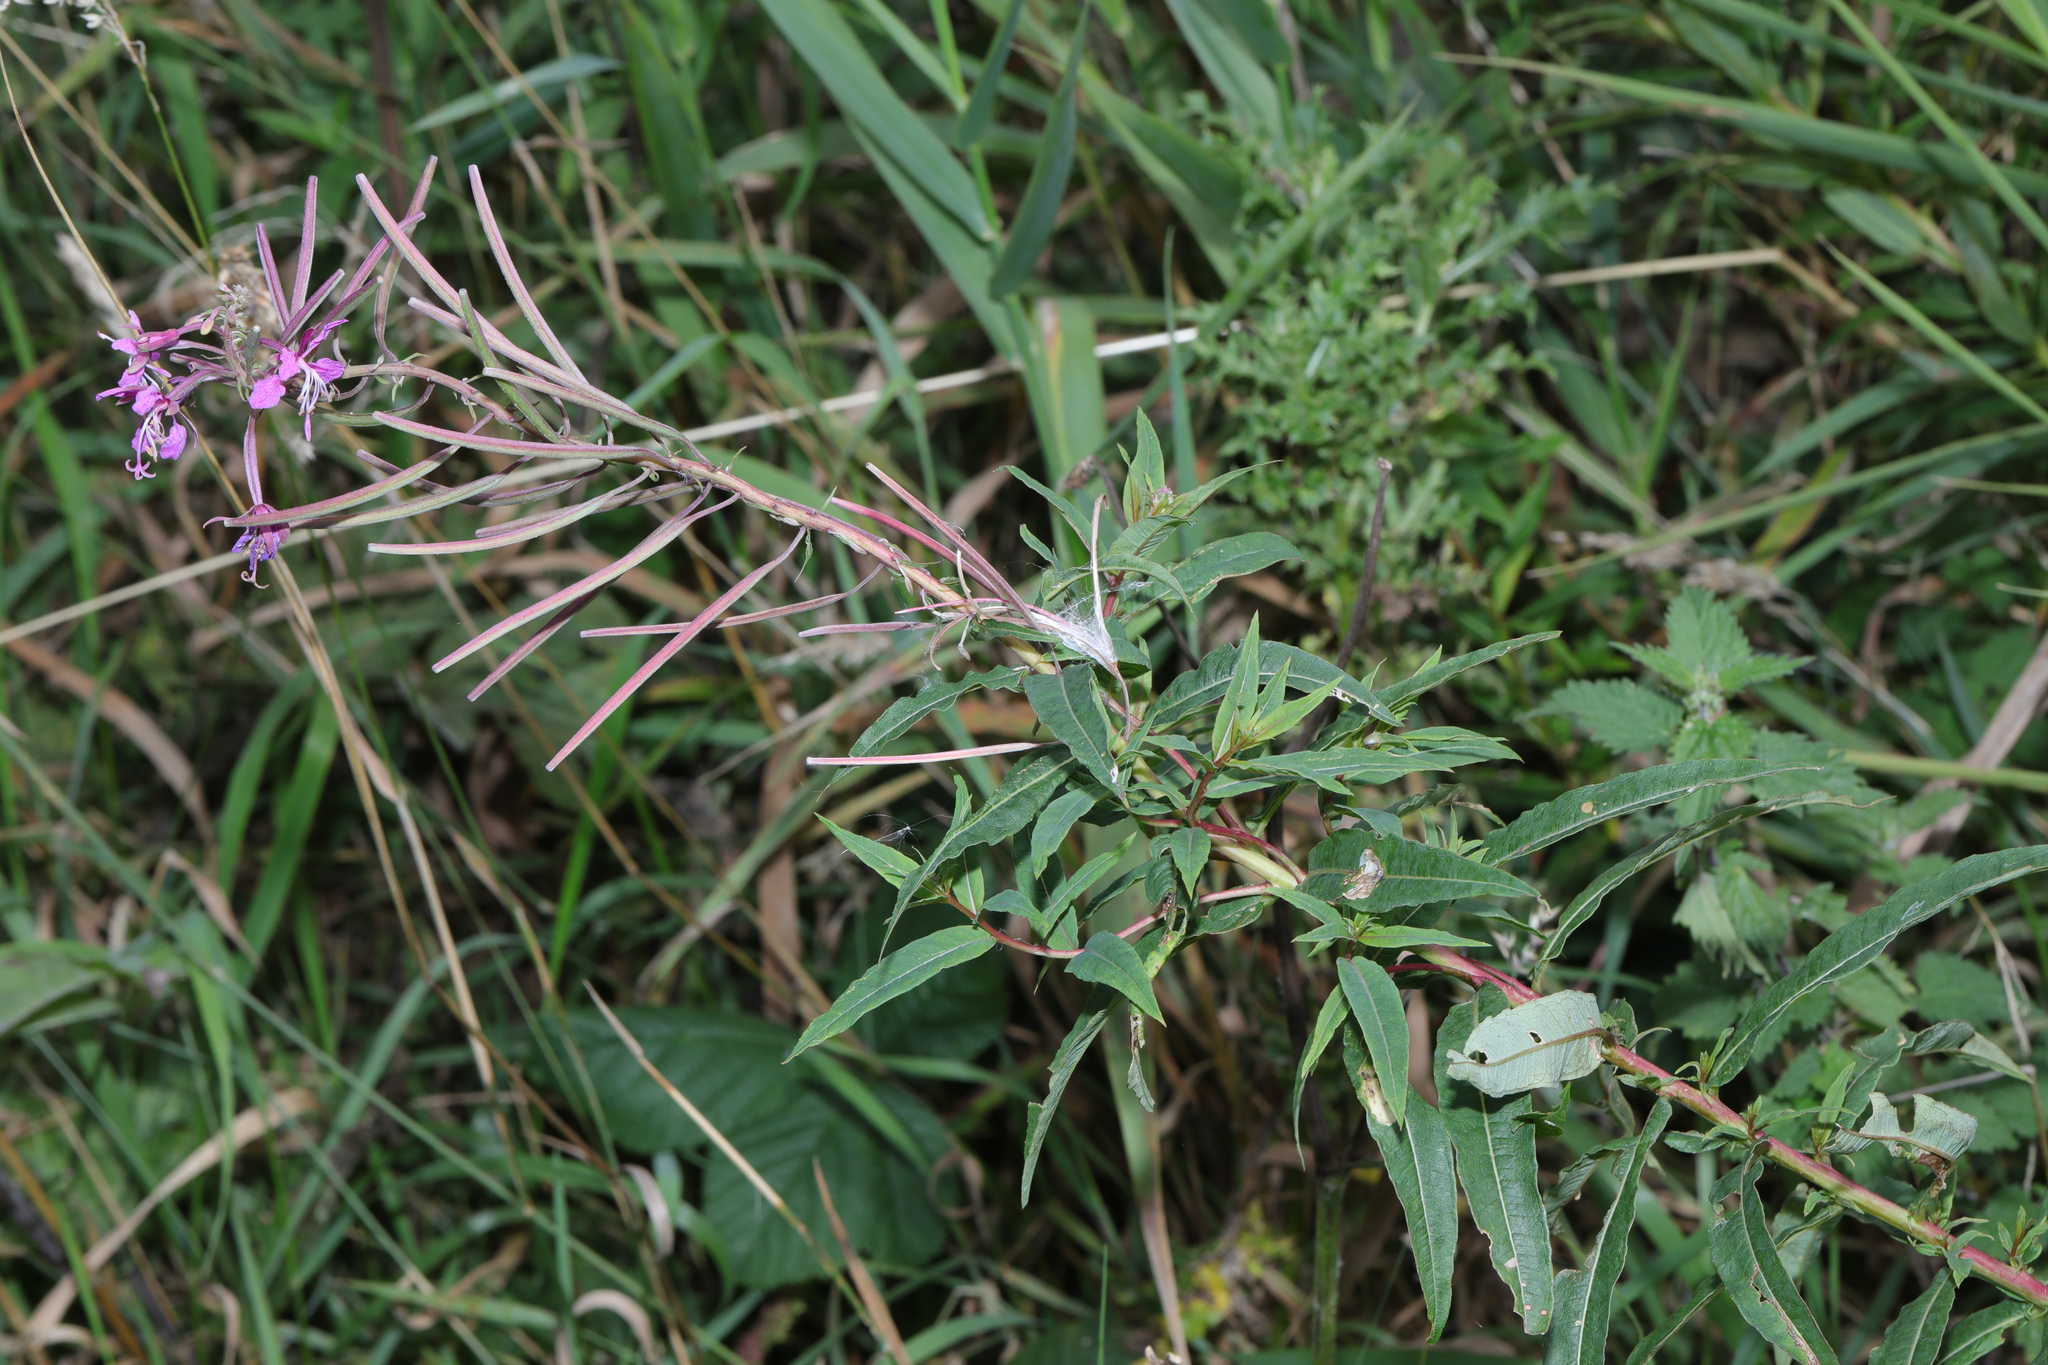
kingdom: Plantae
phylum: Tracheophyta
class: Magnoliopsida
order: Myrtales
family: Onagraceae
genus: Chamaenerion
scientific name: Chamaenerion angustifolium
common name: Fireweed
